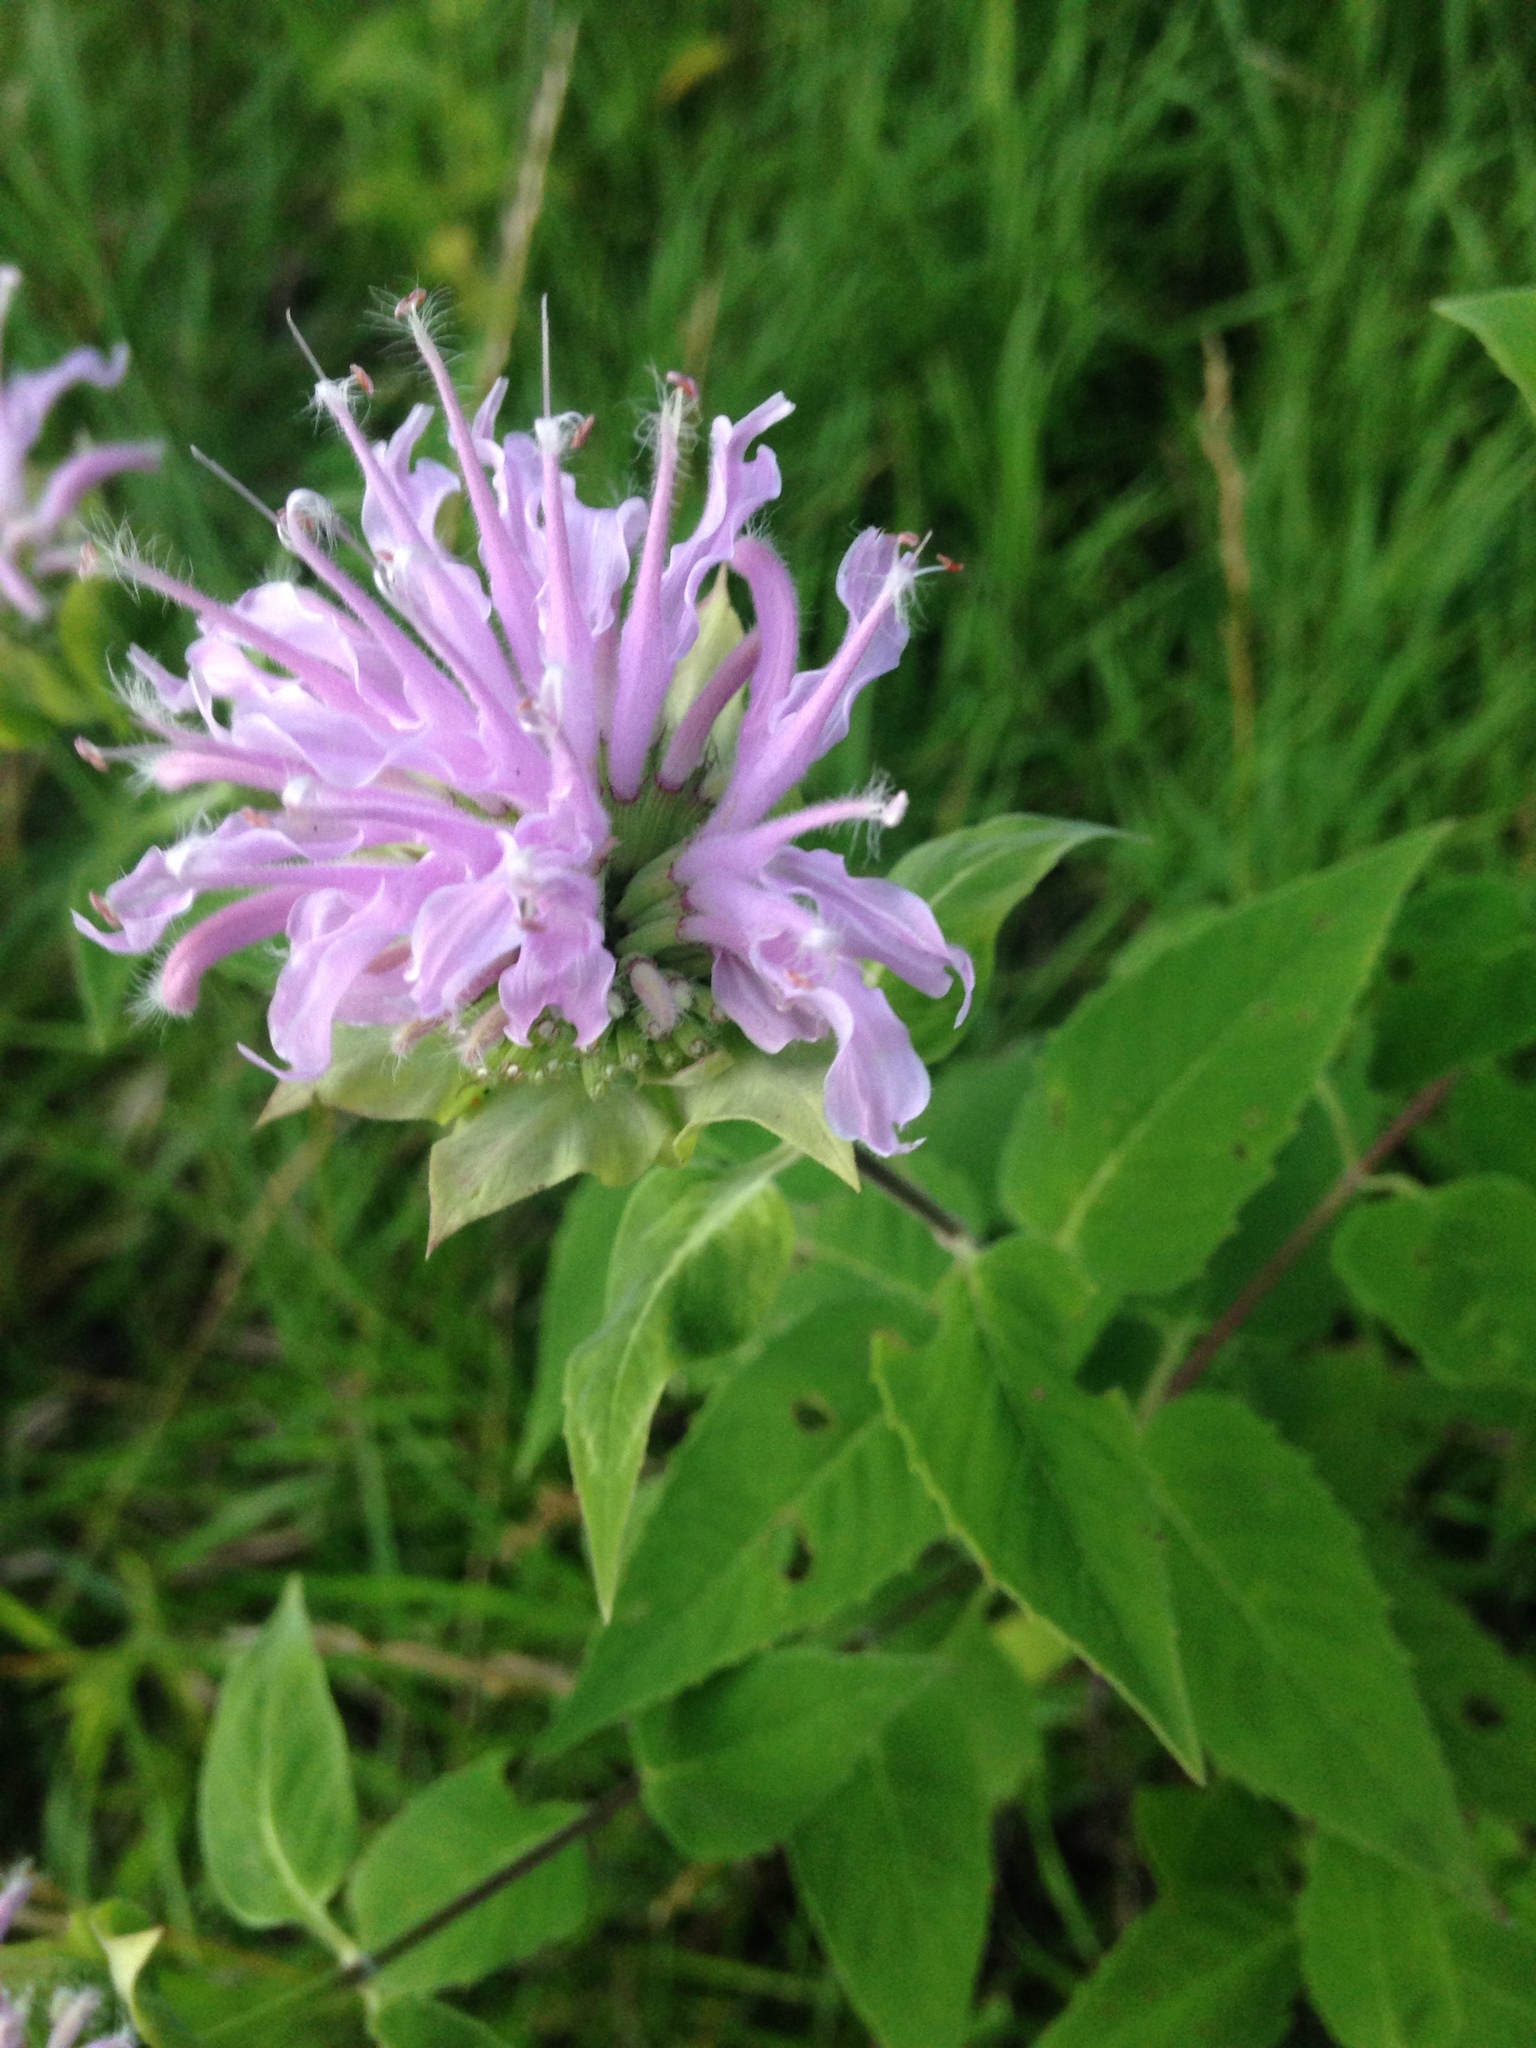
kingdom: Plantae
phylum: Tracheophyta
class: Magnoliopsida
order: Lamiales
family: Lamiaceae
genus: Monarda
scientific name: Monarda fistulosa
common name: Purple beebalm
